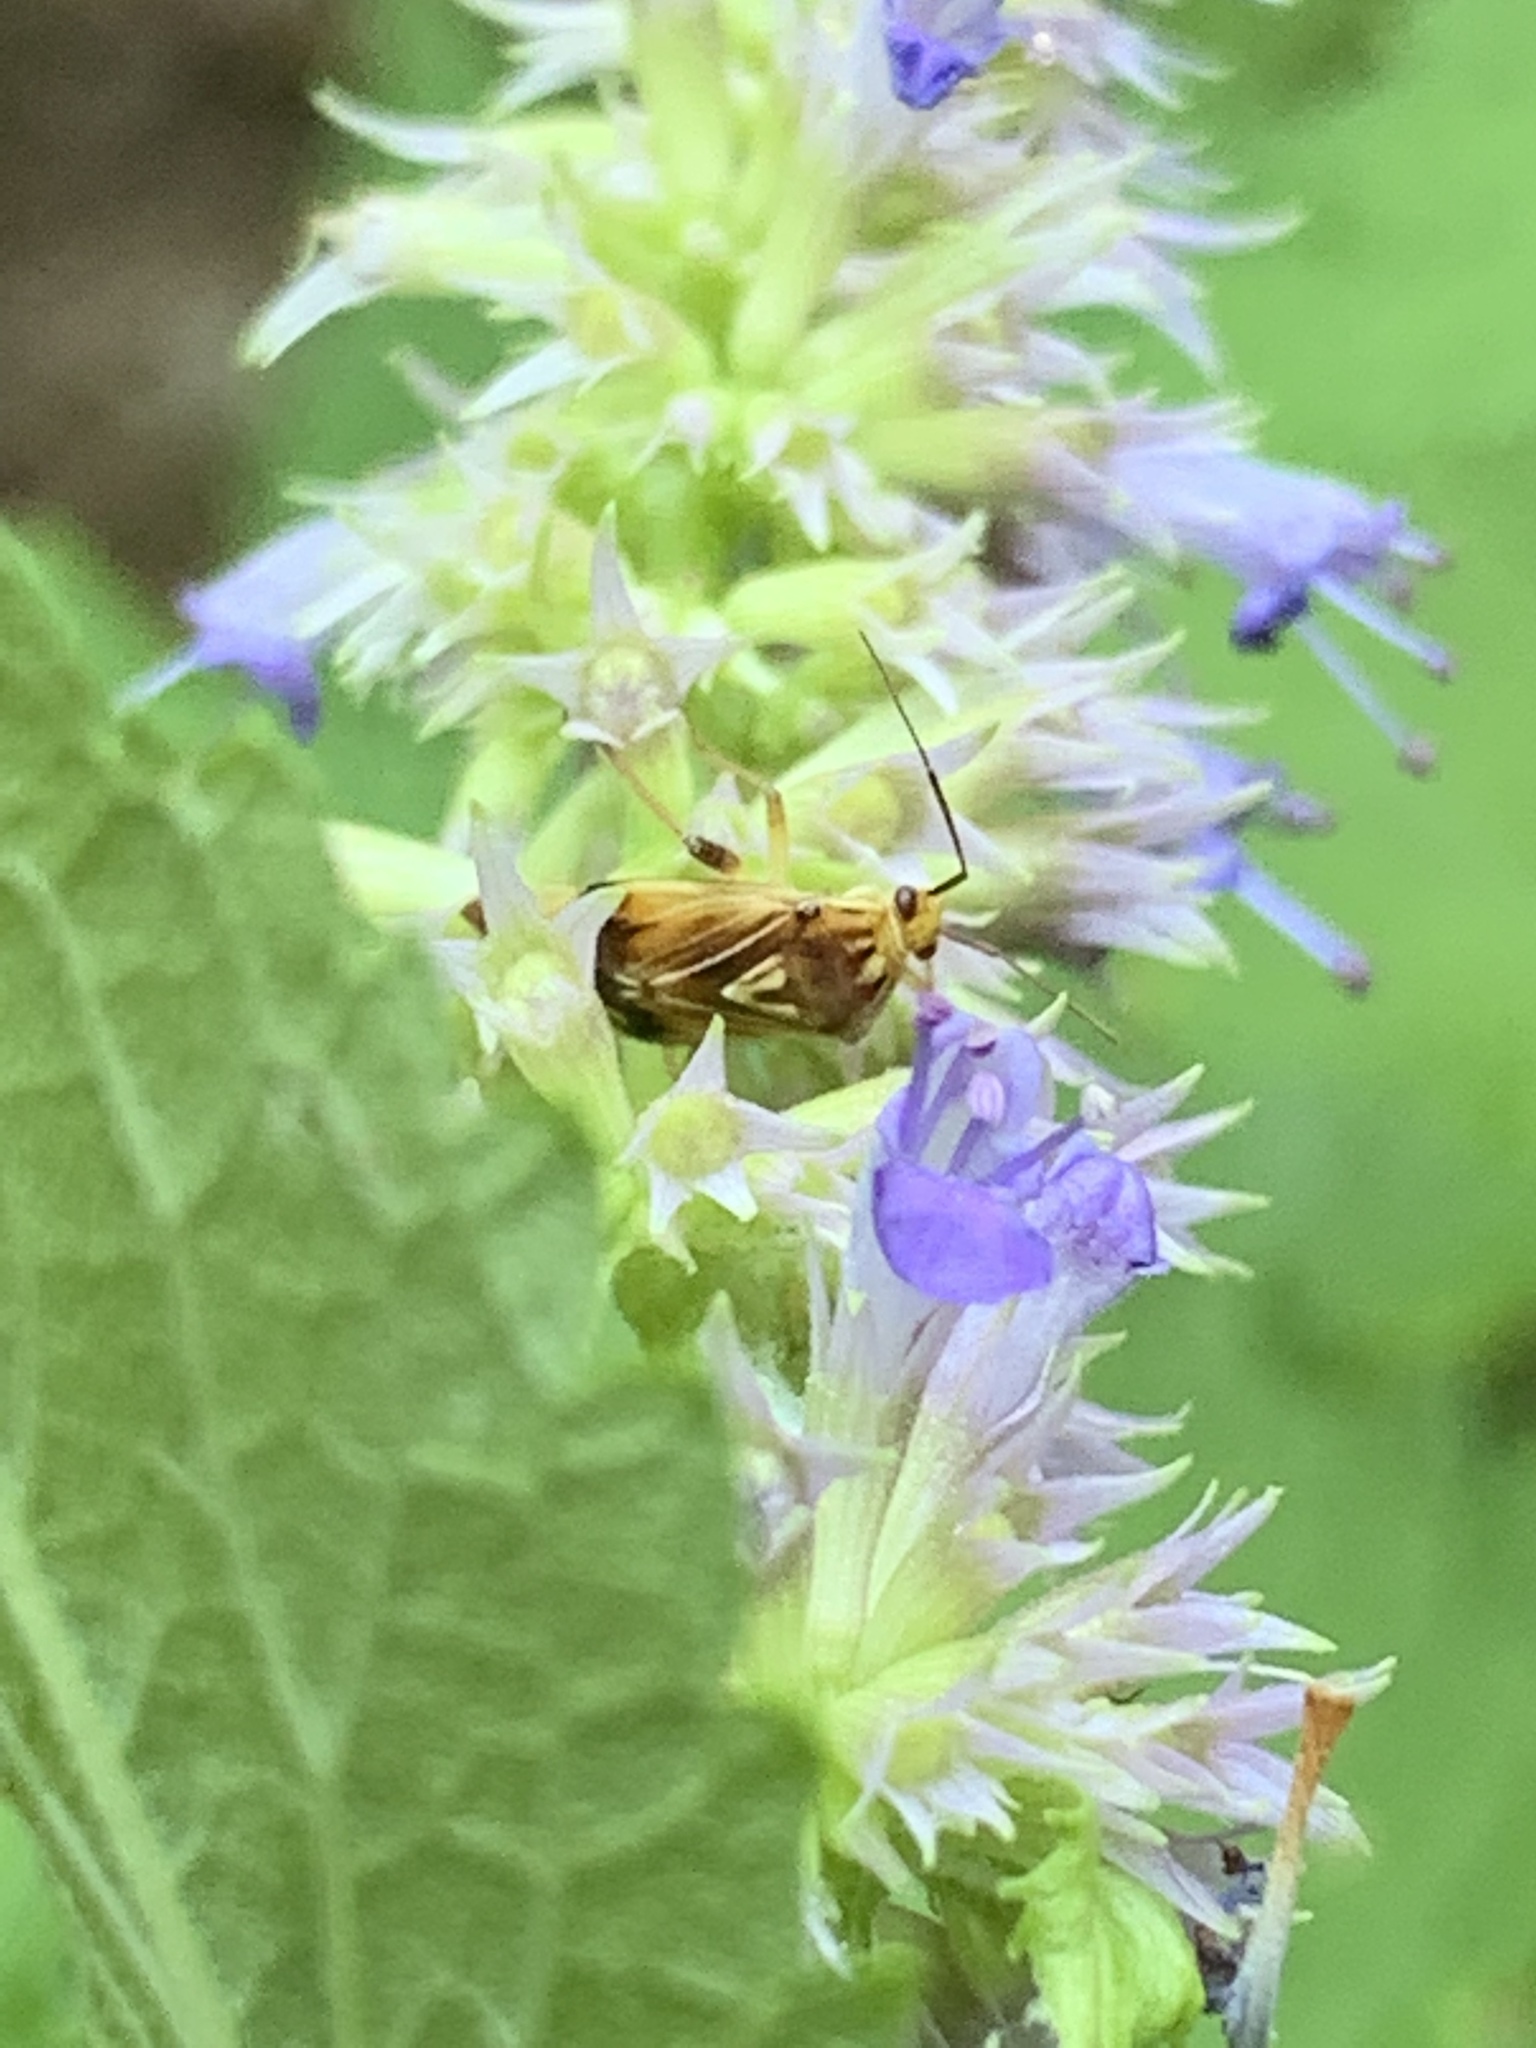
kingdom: Animalia
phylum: Arthropoda
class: Insecta
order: Hemiptera
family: Miridae
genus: Lygus
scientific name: Lygus lineolaris
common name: North american tarnished plant bug
